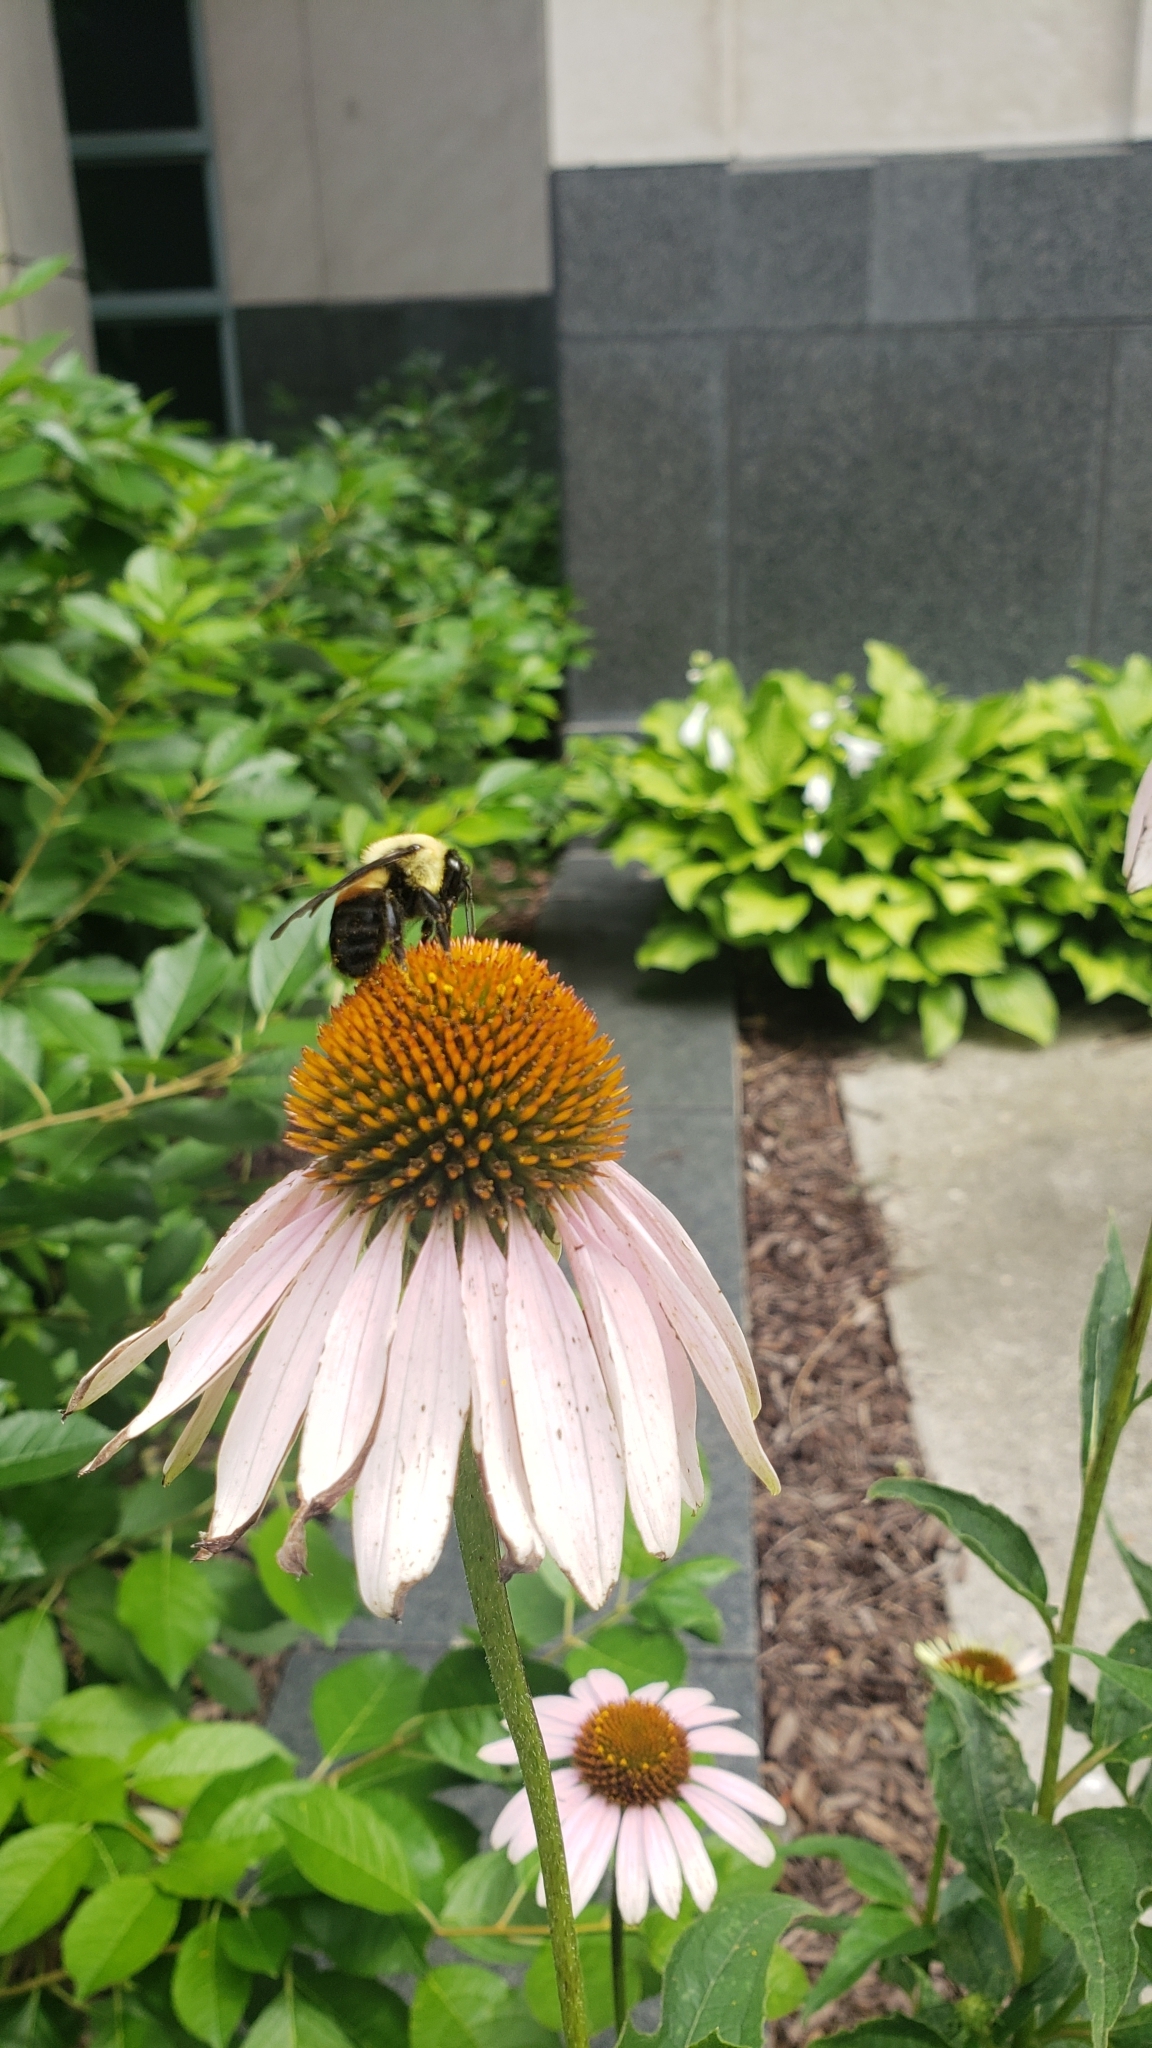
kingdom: Animalia
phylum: Arthropoda
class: Insecta
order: Hymenoptera
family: Apidae
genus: Bombus
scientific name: Bombus griseocollis
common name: Brown-belted bumble bee
